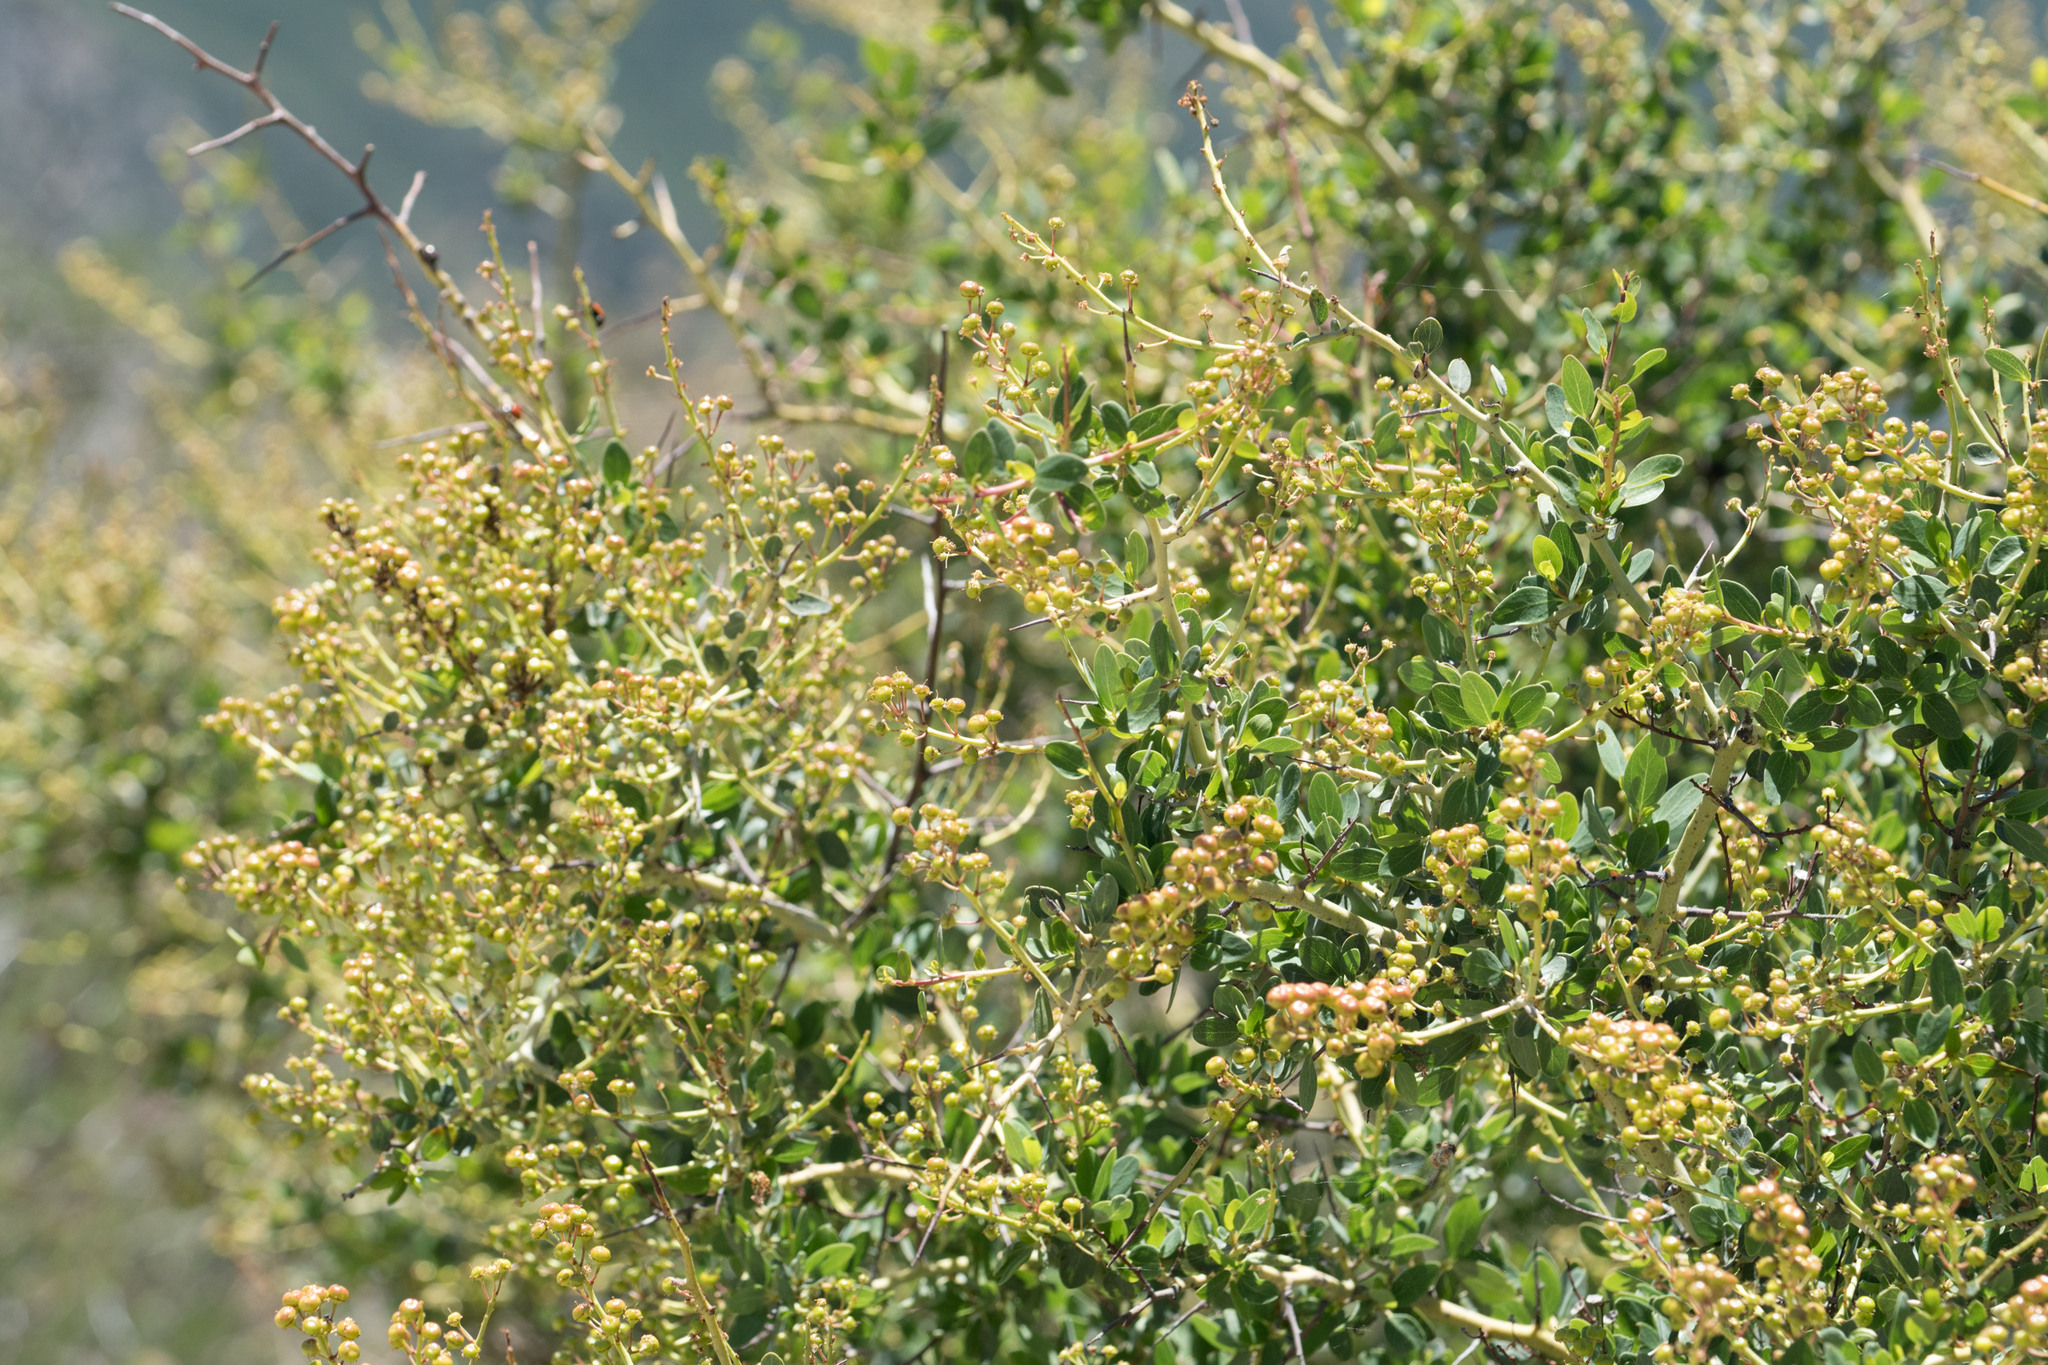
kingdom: Plantae
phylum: Tracheophyta
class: Magnoliopsida
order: Rosales
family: Rhamnaceae
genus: Ceanothus
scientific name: Ceanothus leucodermis
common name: Chaparral whitethorn
